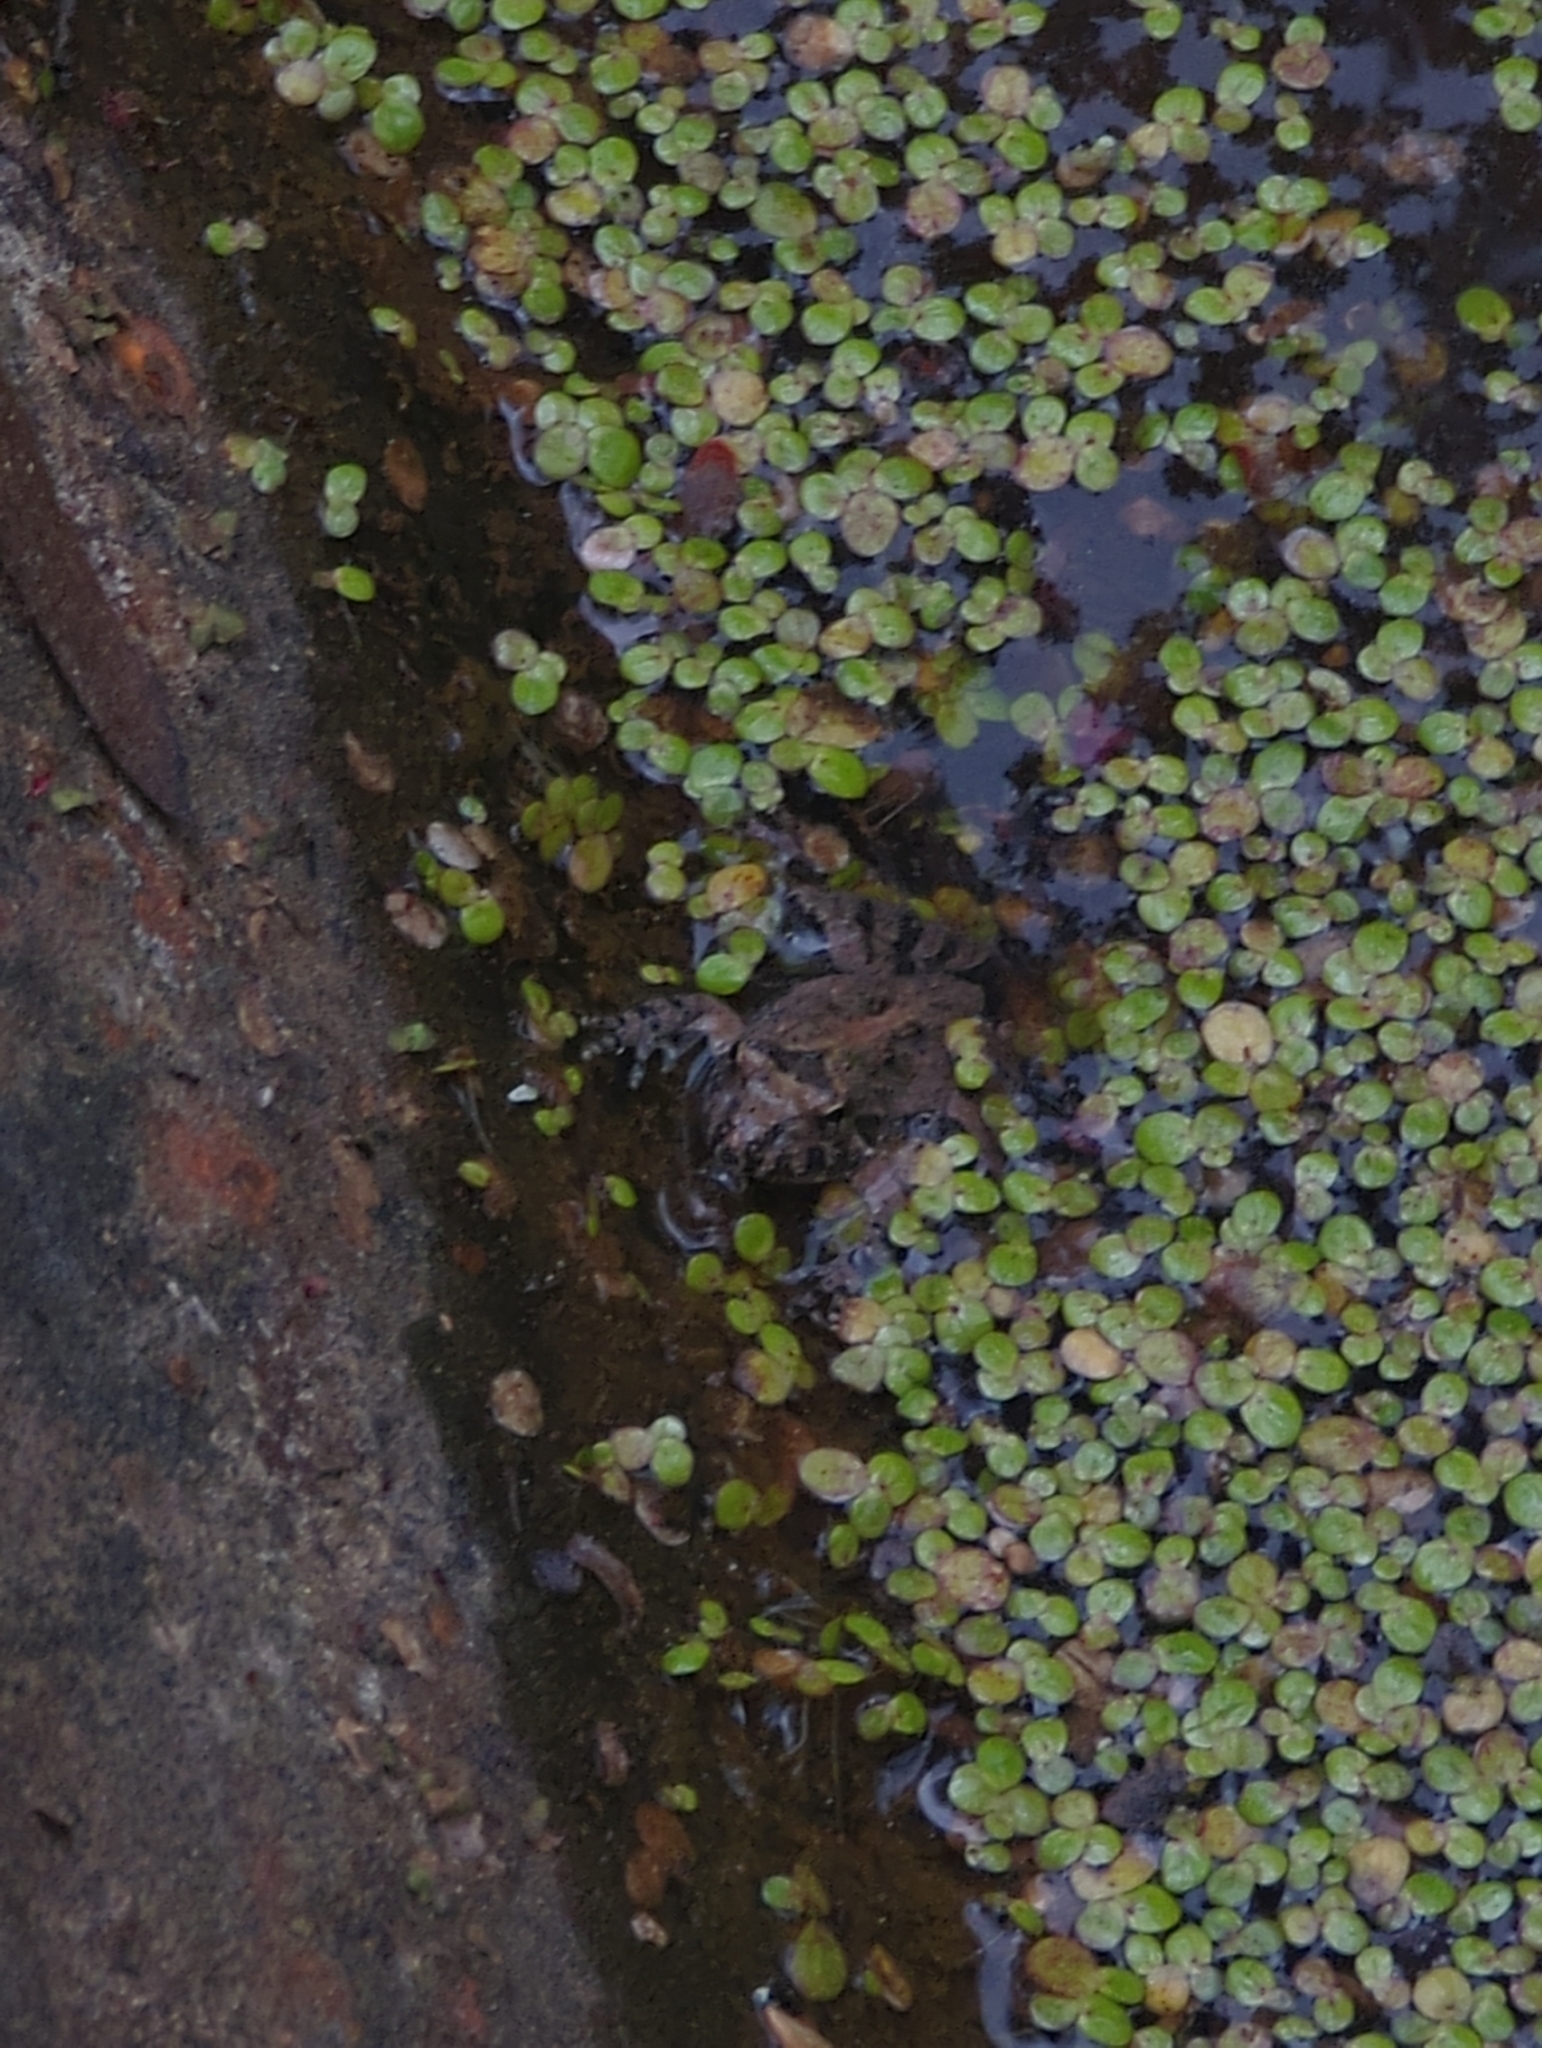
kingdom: Animalia
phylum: Chordata
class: Amphibia
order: Anura
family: Hylidae
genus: Acris
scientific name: Acris crepitans
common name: Northern cricket frog
